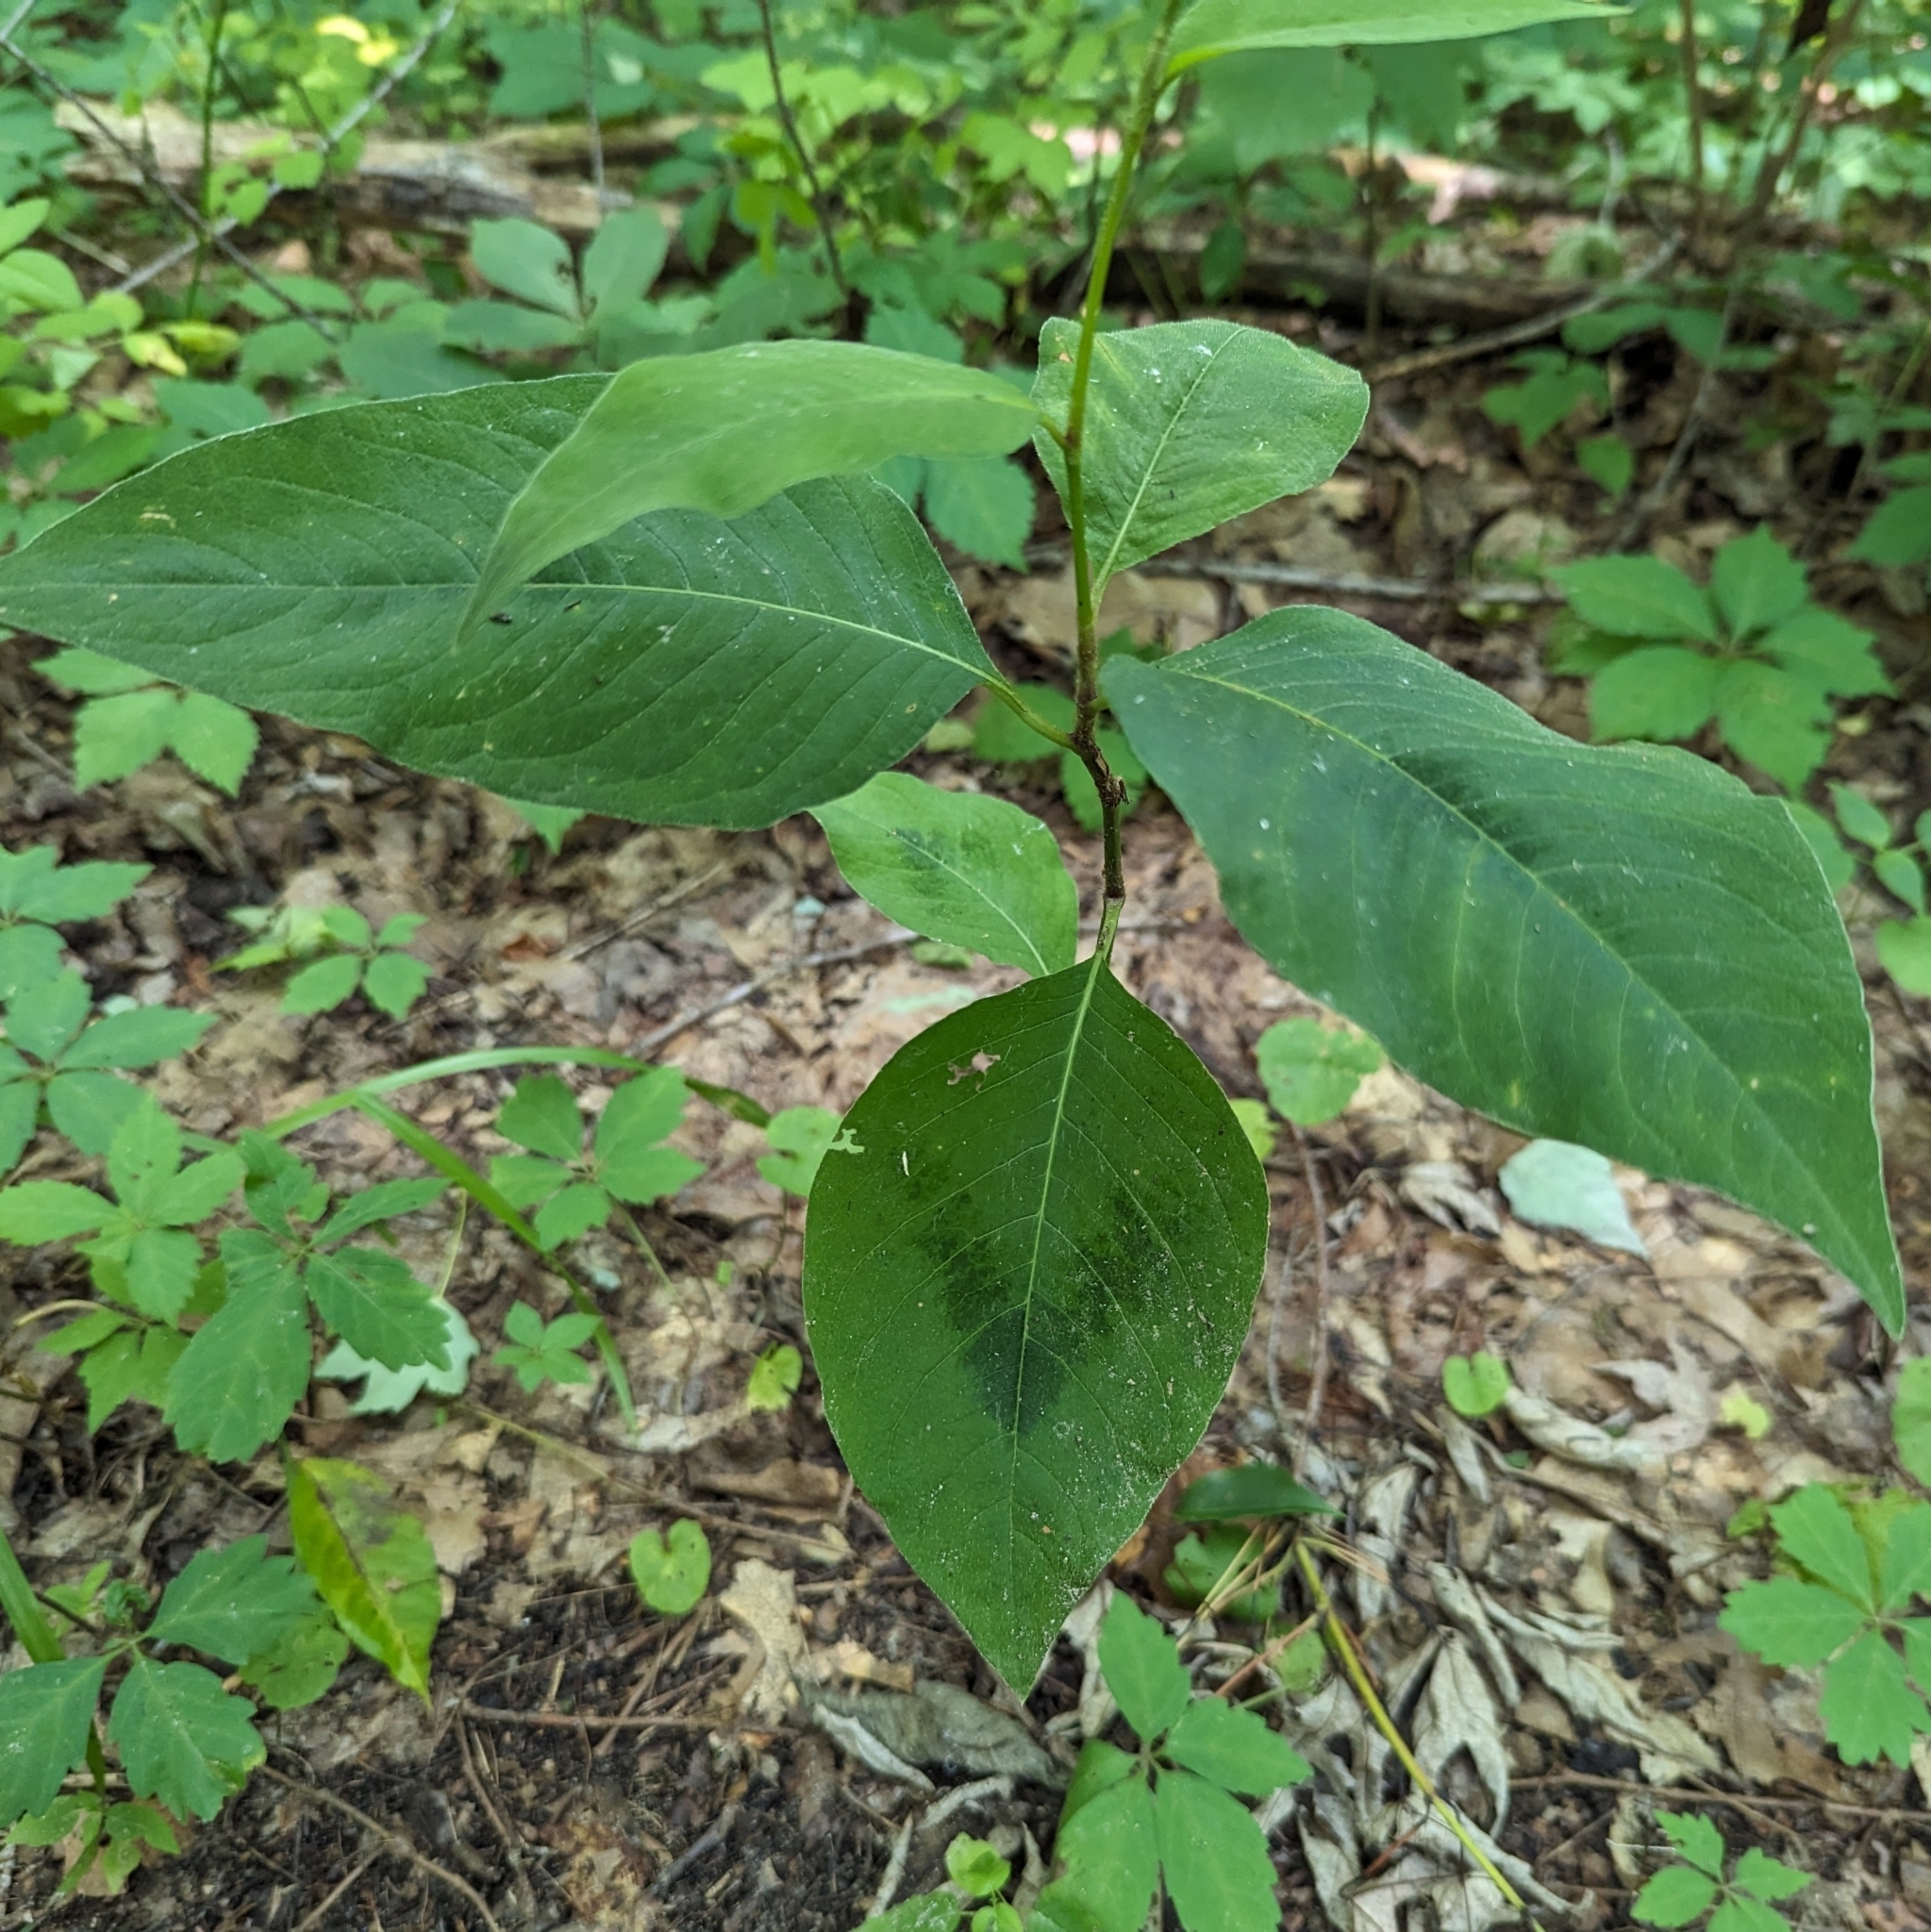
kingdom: Plantae
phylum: Tracheophyta
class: Magnoliopsida
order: Caryophyllales
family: Polygonaceae
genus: Persicaria
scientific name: Persicaria virginiana
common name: Jumpseed
